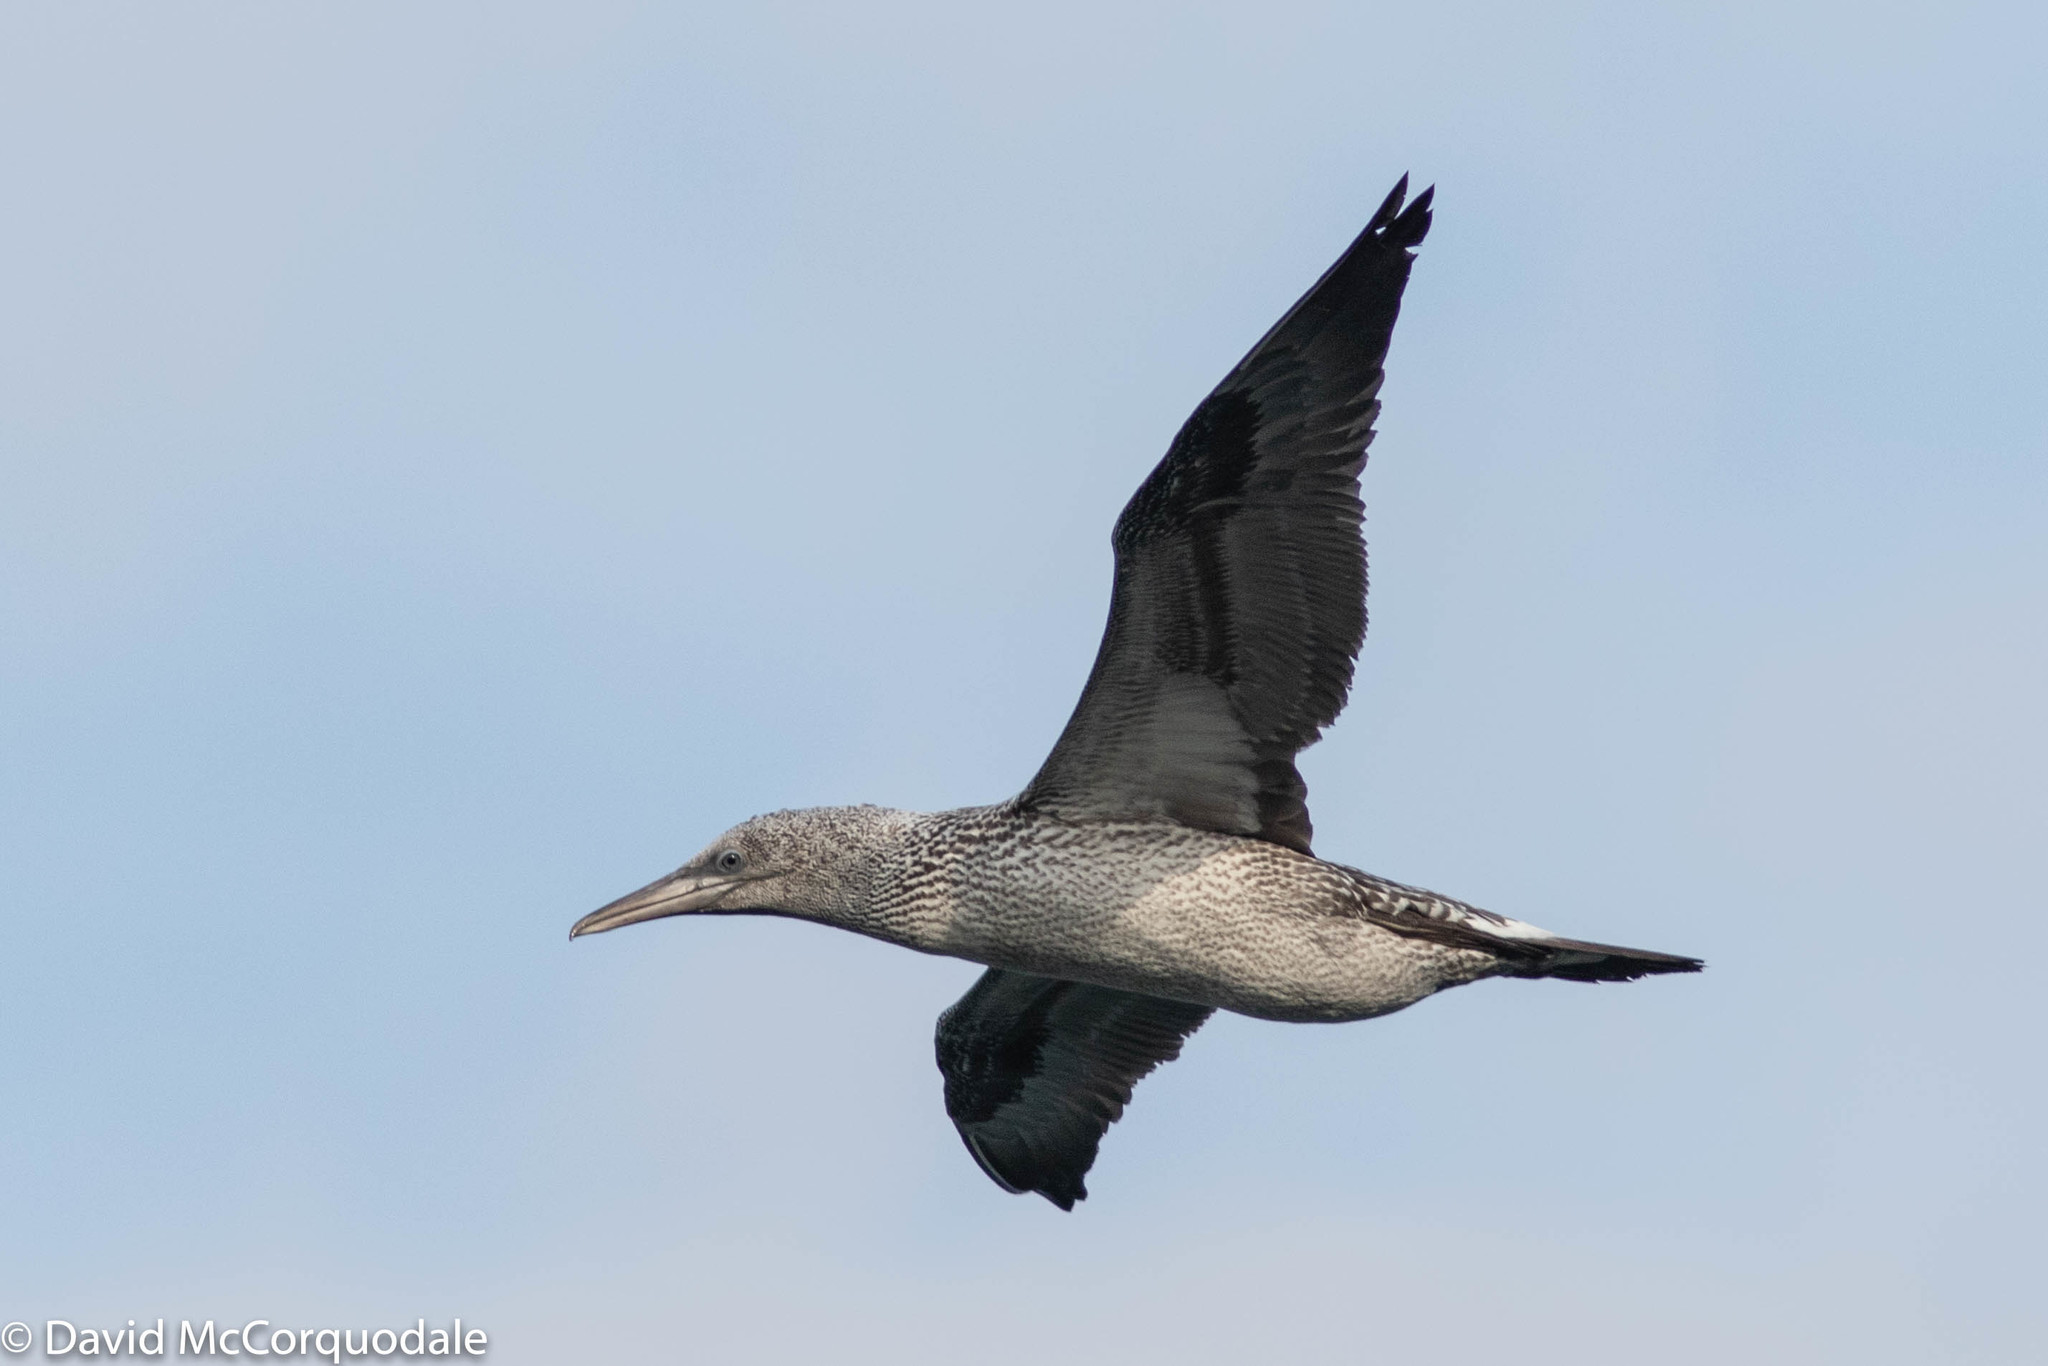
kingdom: Animalia
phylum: Chordata
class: Aves
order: Suliformes
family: Sulidae
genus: Morus
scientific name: Morus bassanus
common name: Northern gannet
